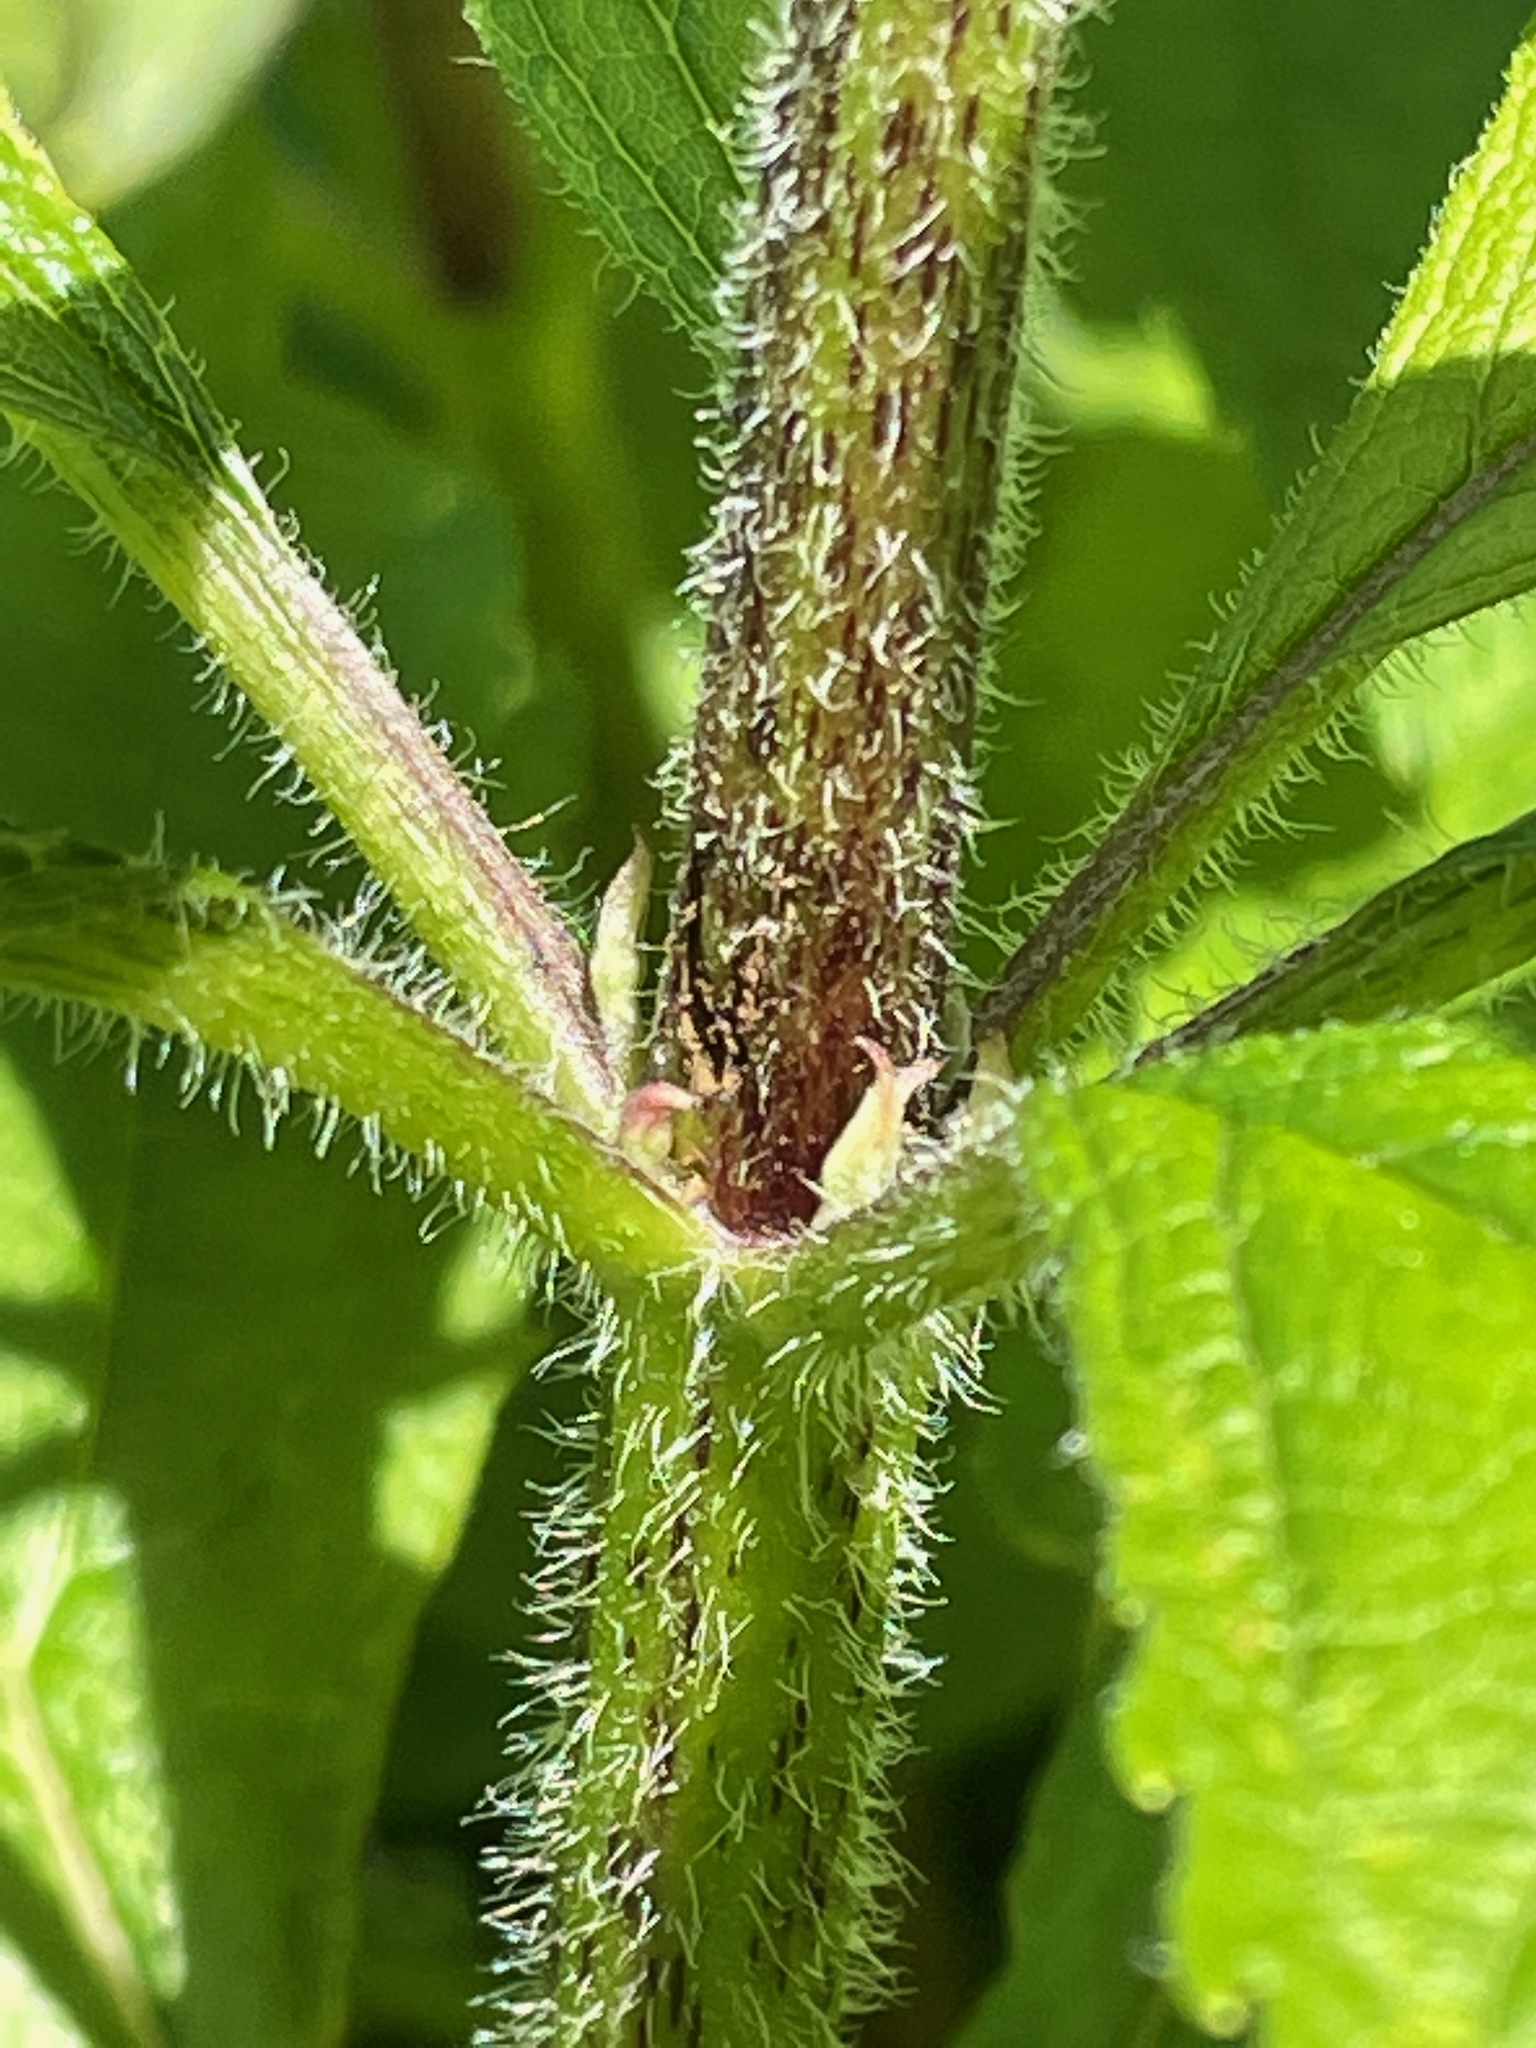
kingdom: Plantae
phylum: Tracheophyta
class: Magnoliopsida
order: Asterales
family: Asteraceae
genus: Eutrochium
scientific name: Eutrochium maculatum
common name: Spotted joe pye weed
